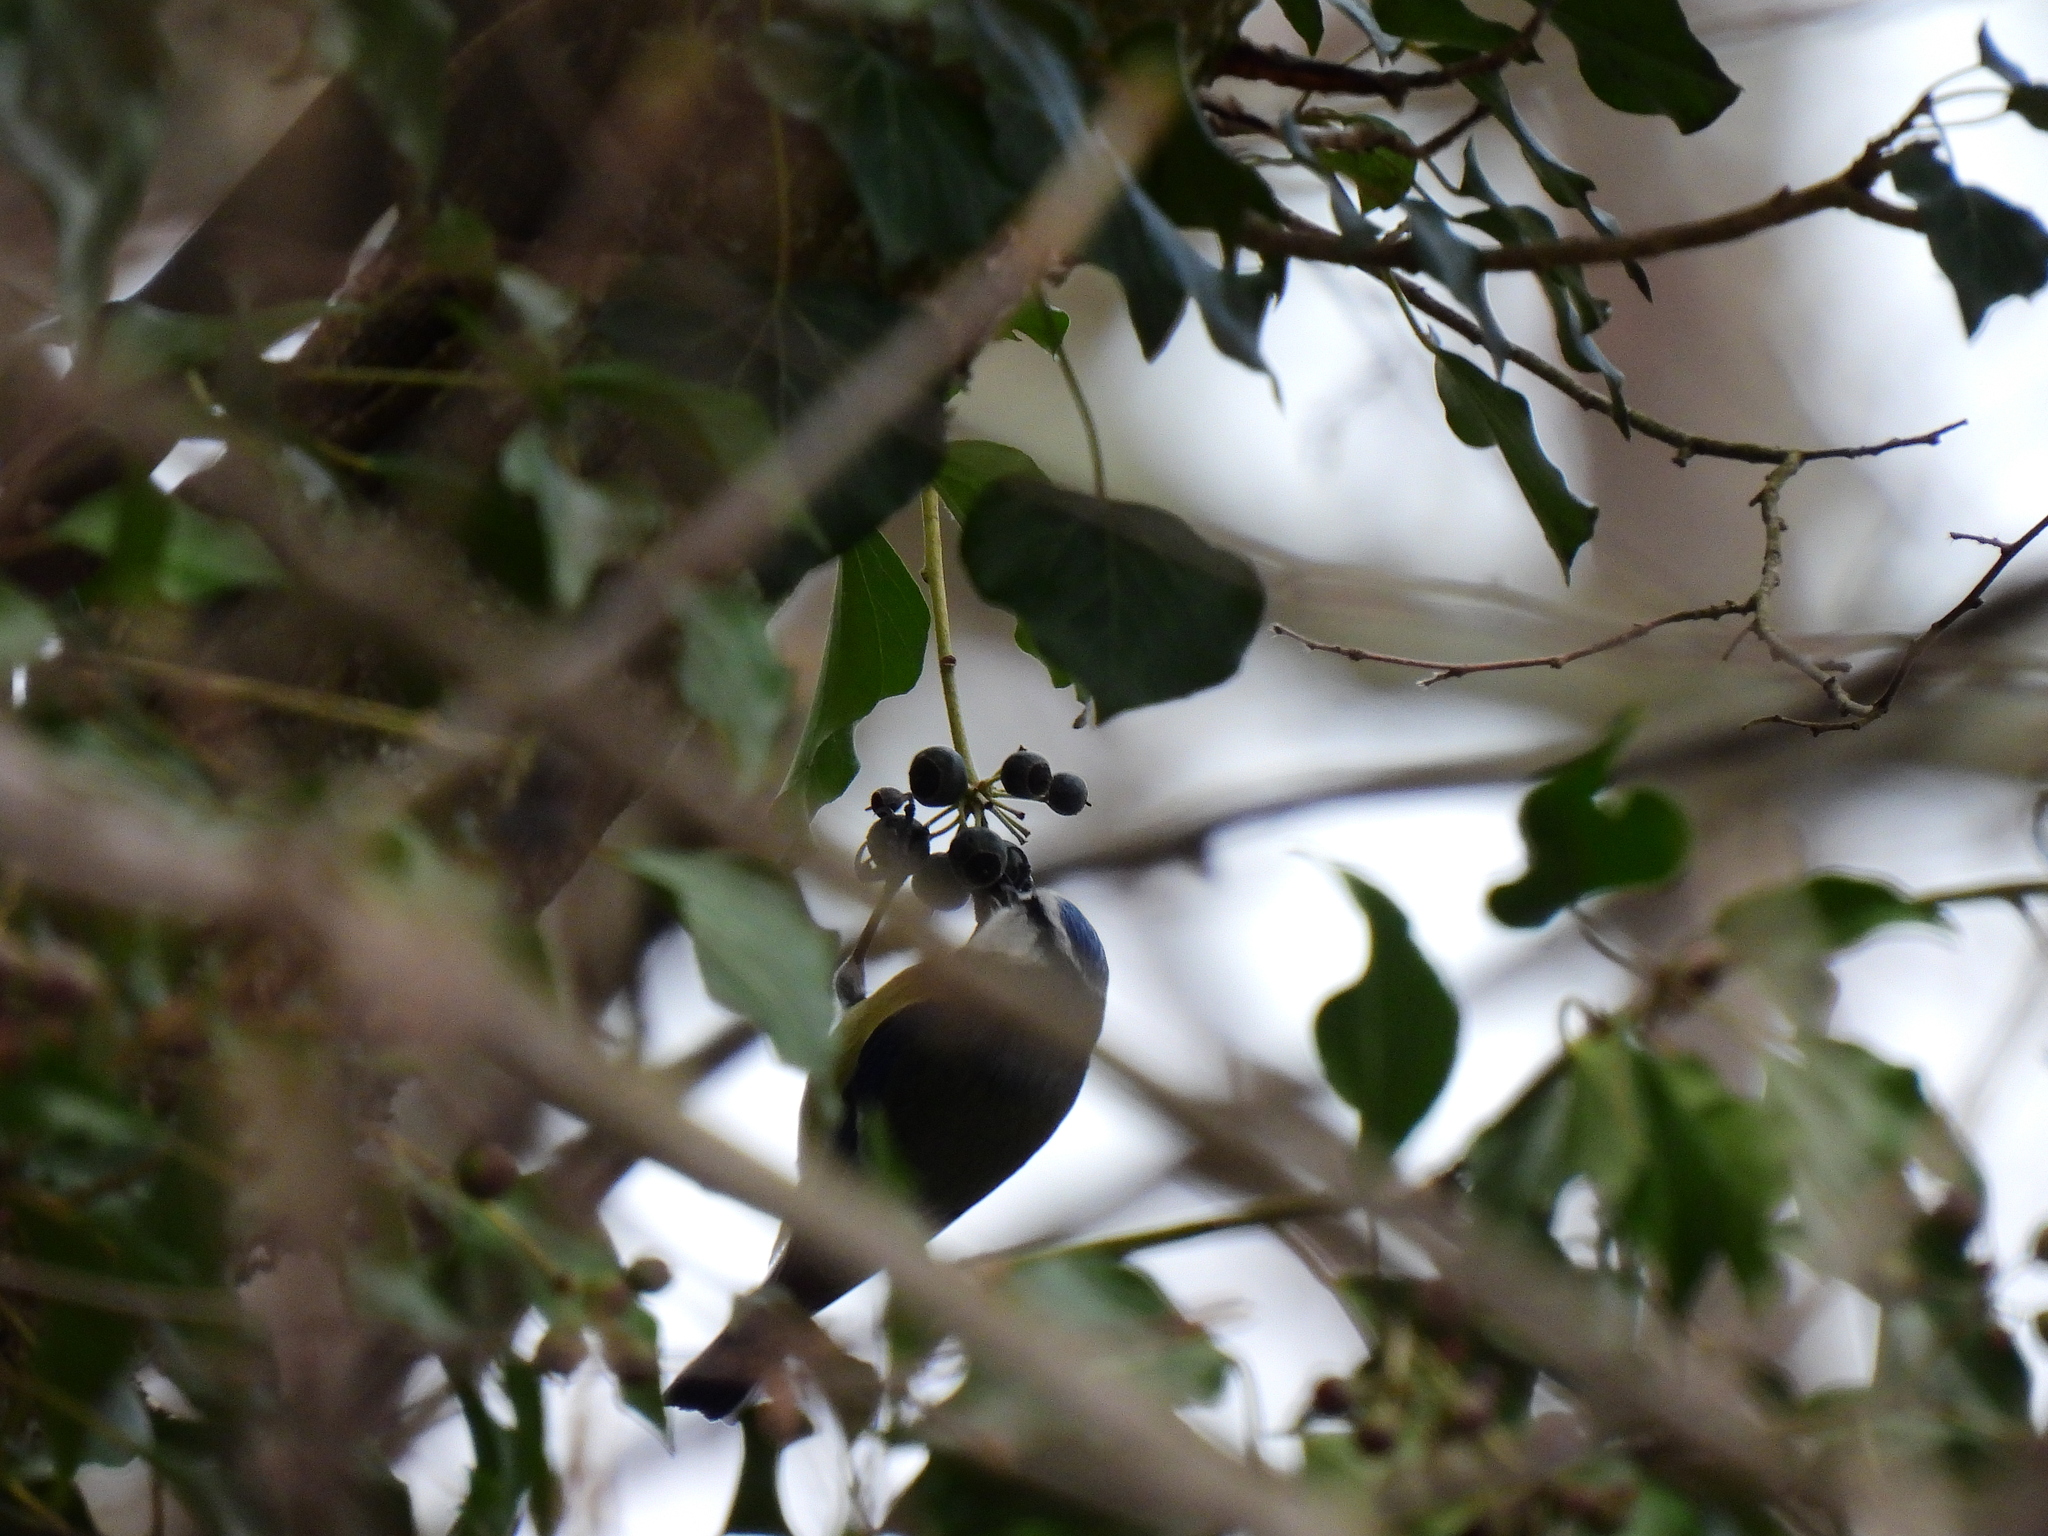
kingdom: Animalia
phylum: Chordata
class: Aves
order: Passeriformes
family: Paridae
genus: Cyanistes
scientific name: Cyanistes caeruleus
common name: Eurasian blue tit
